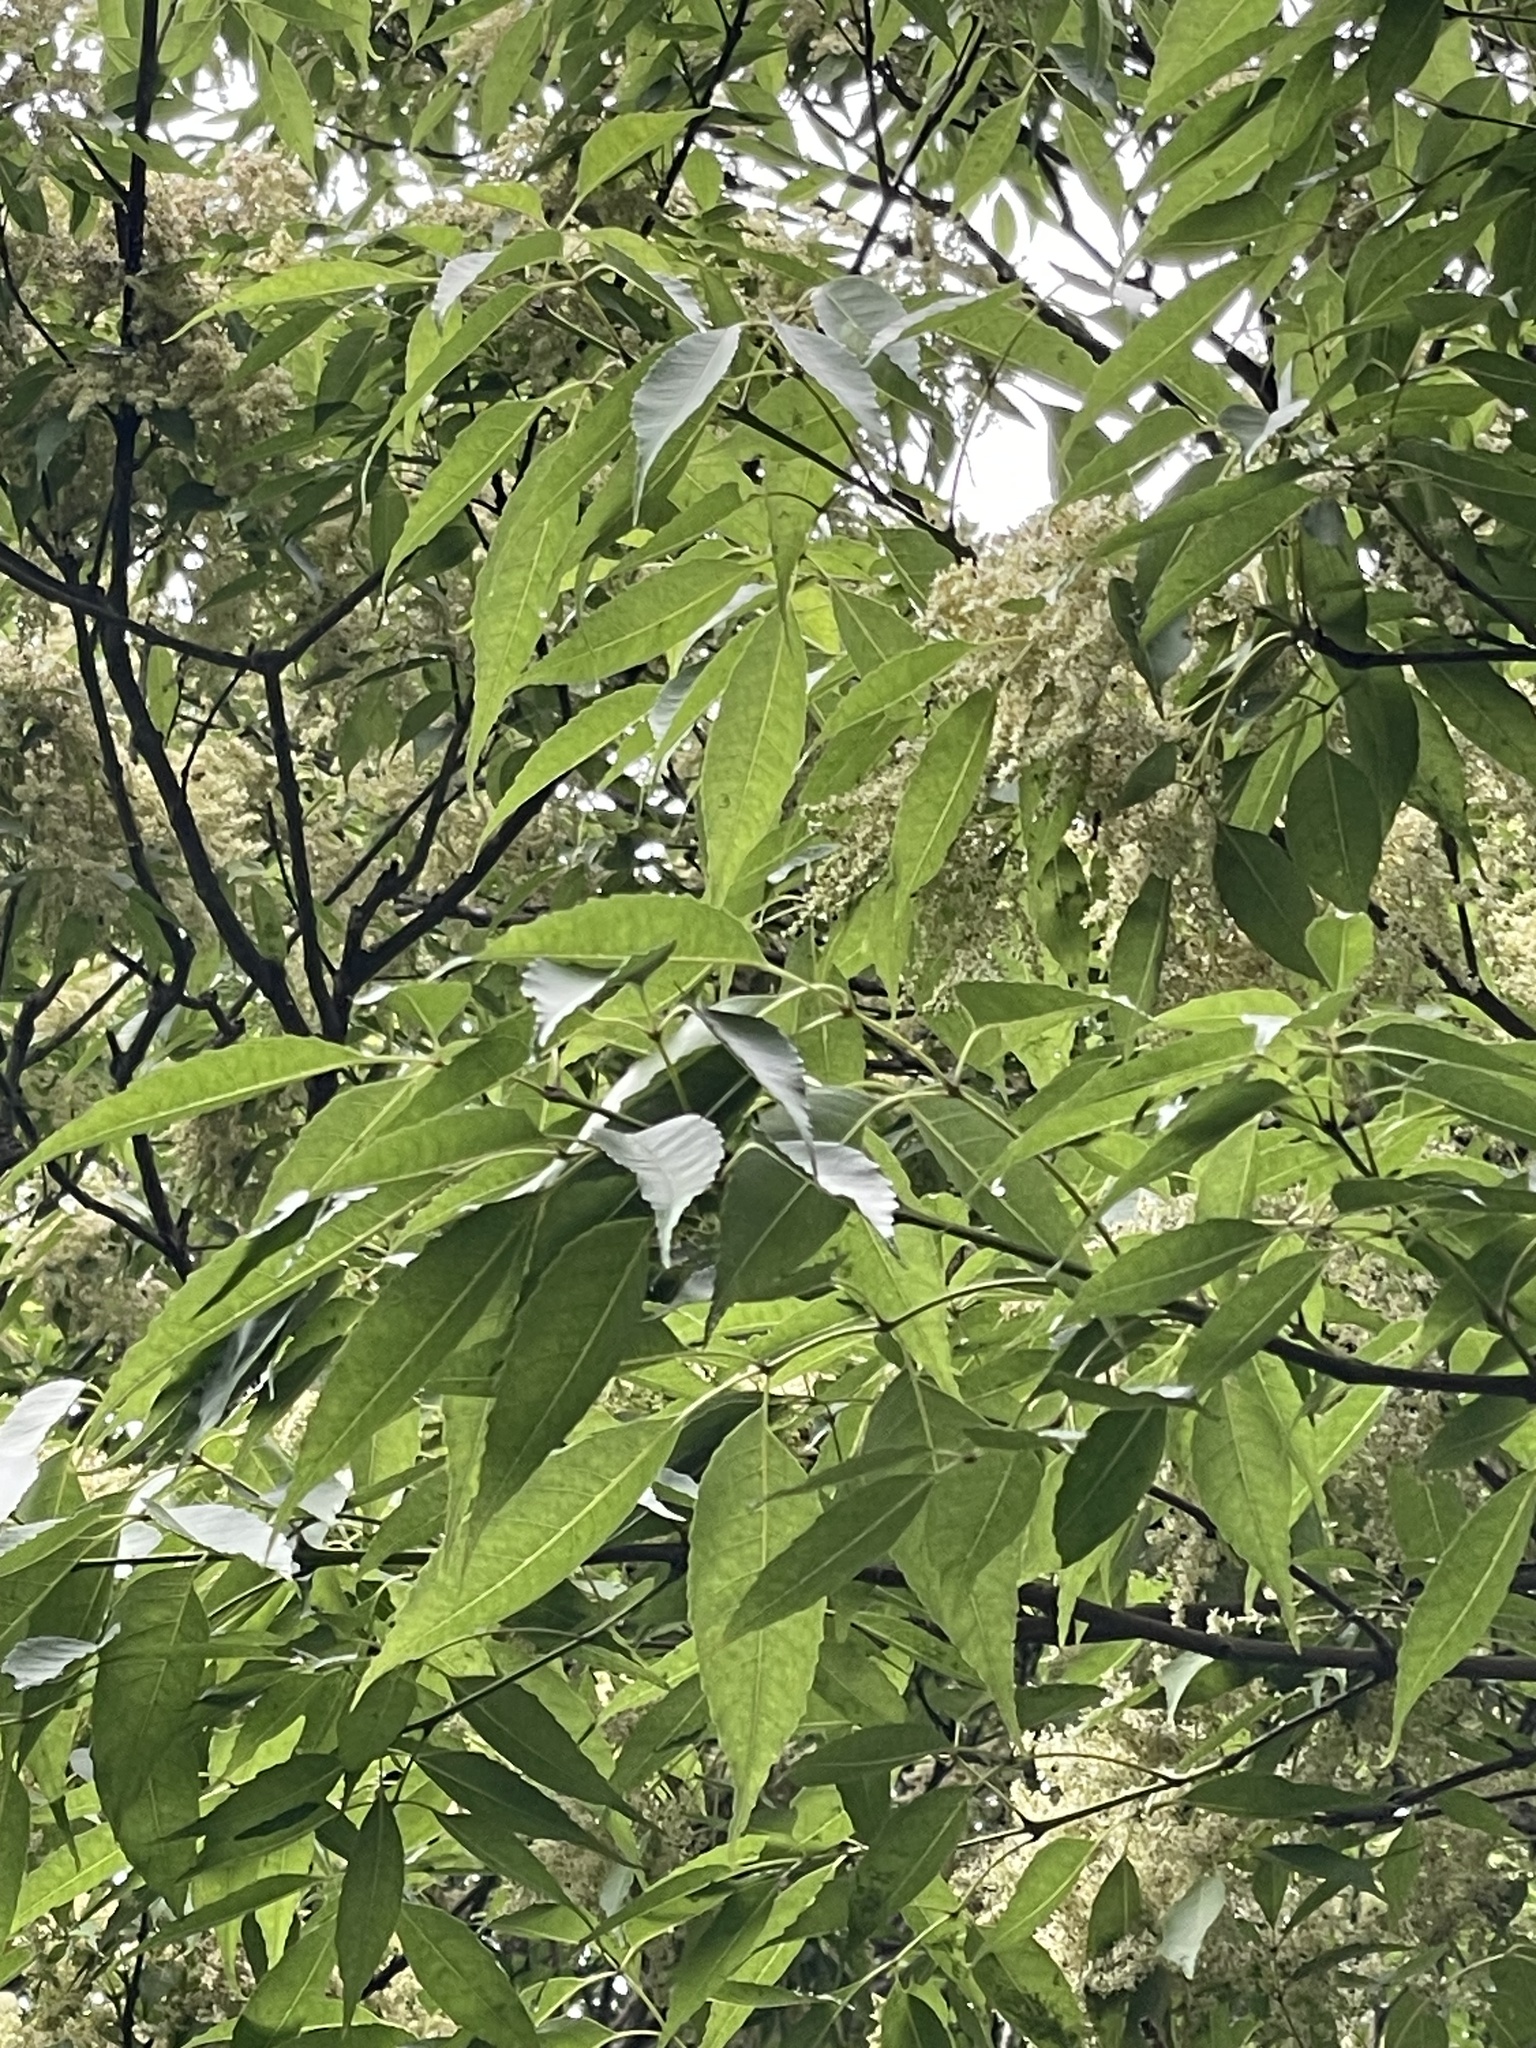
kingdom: Plantae
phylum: Tracheophyta
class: Magnoliopsida
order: Lamiales
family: Oleaceae
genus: Fraxinus
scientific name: Fraxinus insularis
